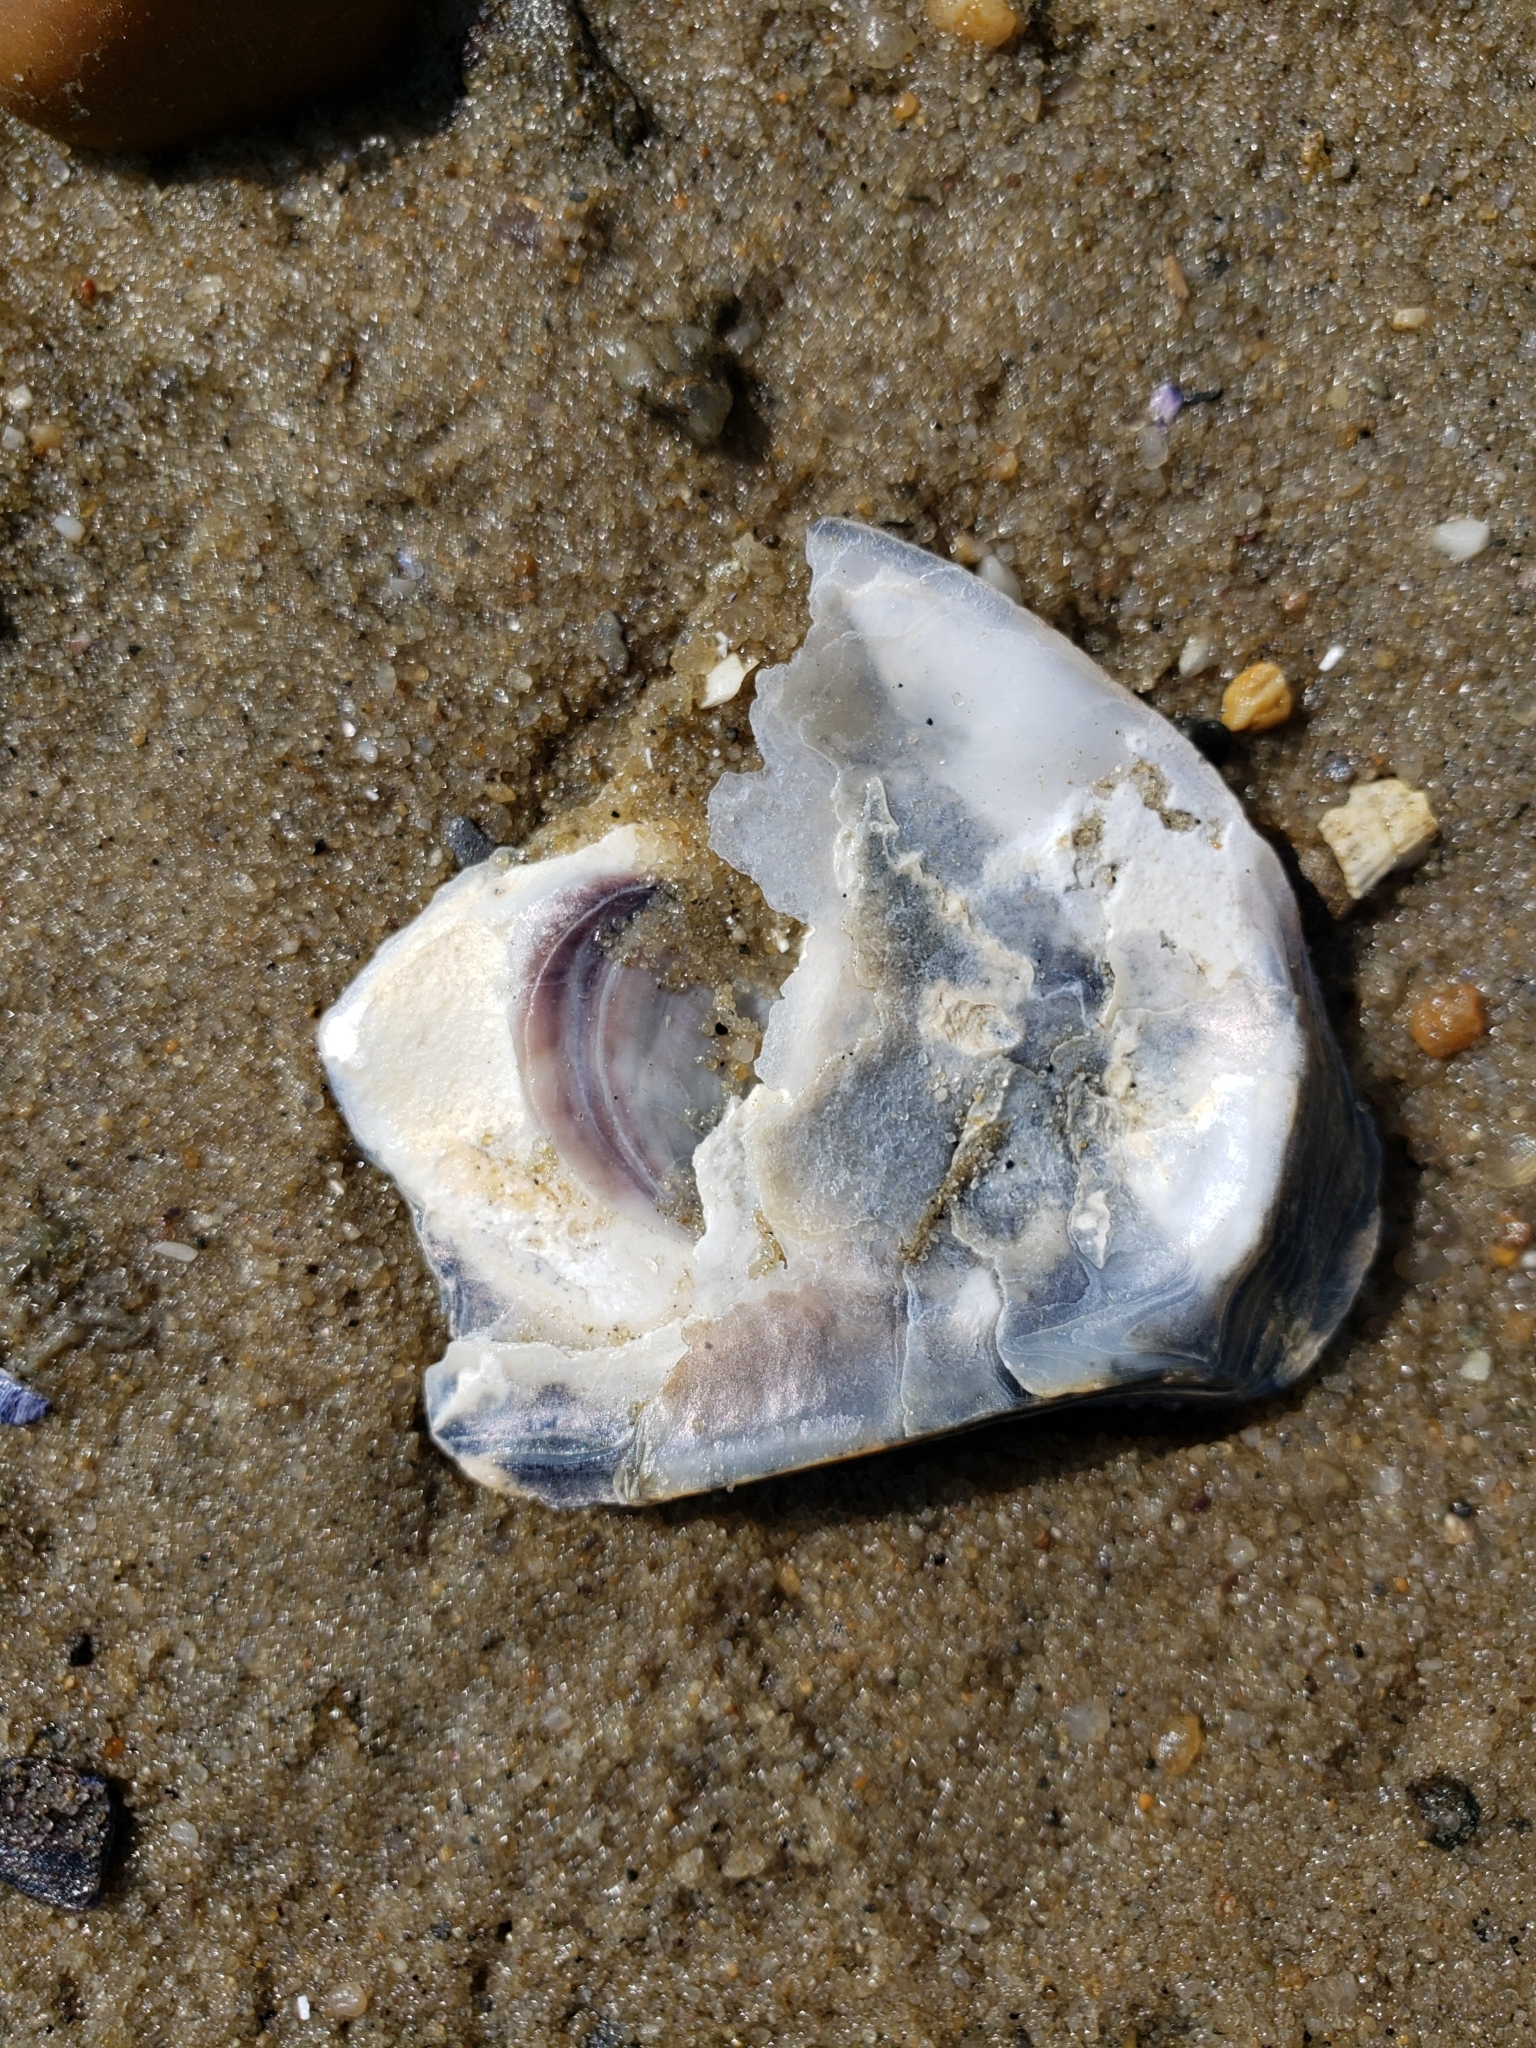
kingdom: Animalia
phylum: Mollusca
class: Bivalvia
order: Ostreida
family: Ostreidae
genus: Crassostrea
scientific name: Crassostrea virginica
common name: American oyster
